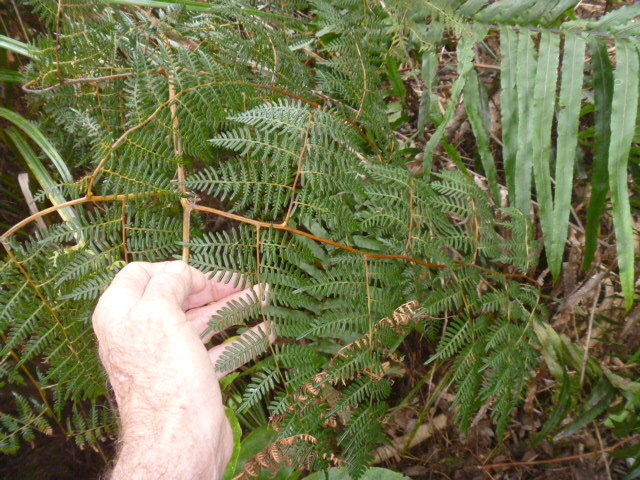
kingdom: Plantae
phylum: Tracheophyta
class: Polypodiopsida
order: Polypodiales
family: Dennstaedtiaceae
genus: Pteridium
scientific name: Pteridium esculentum
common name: Bracken fern
